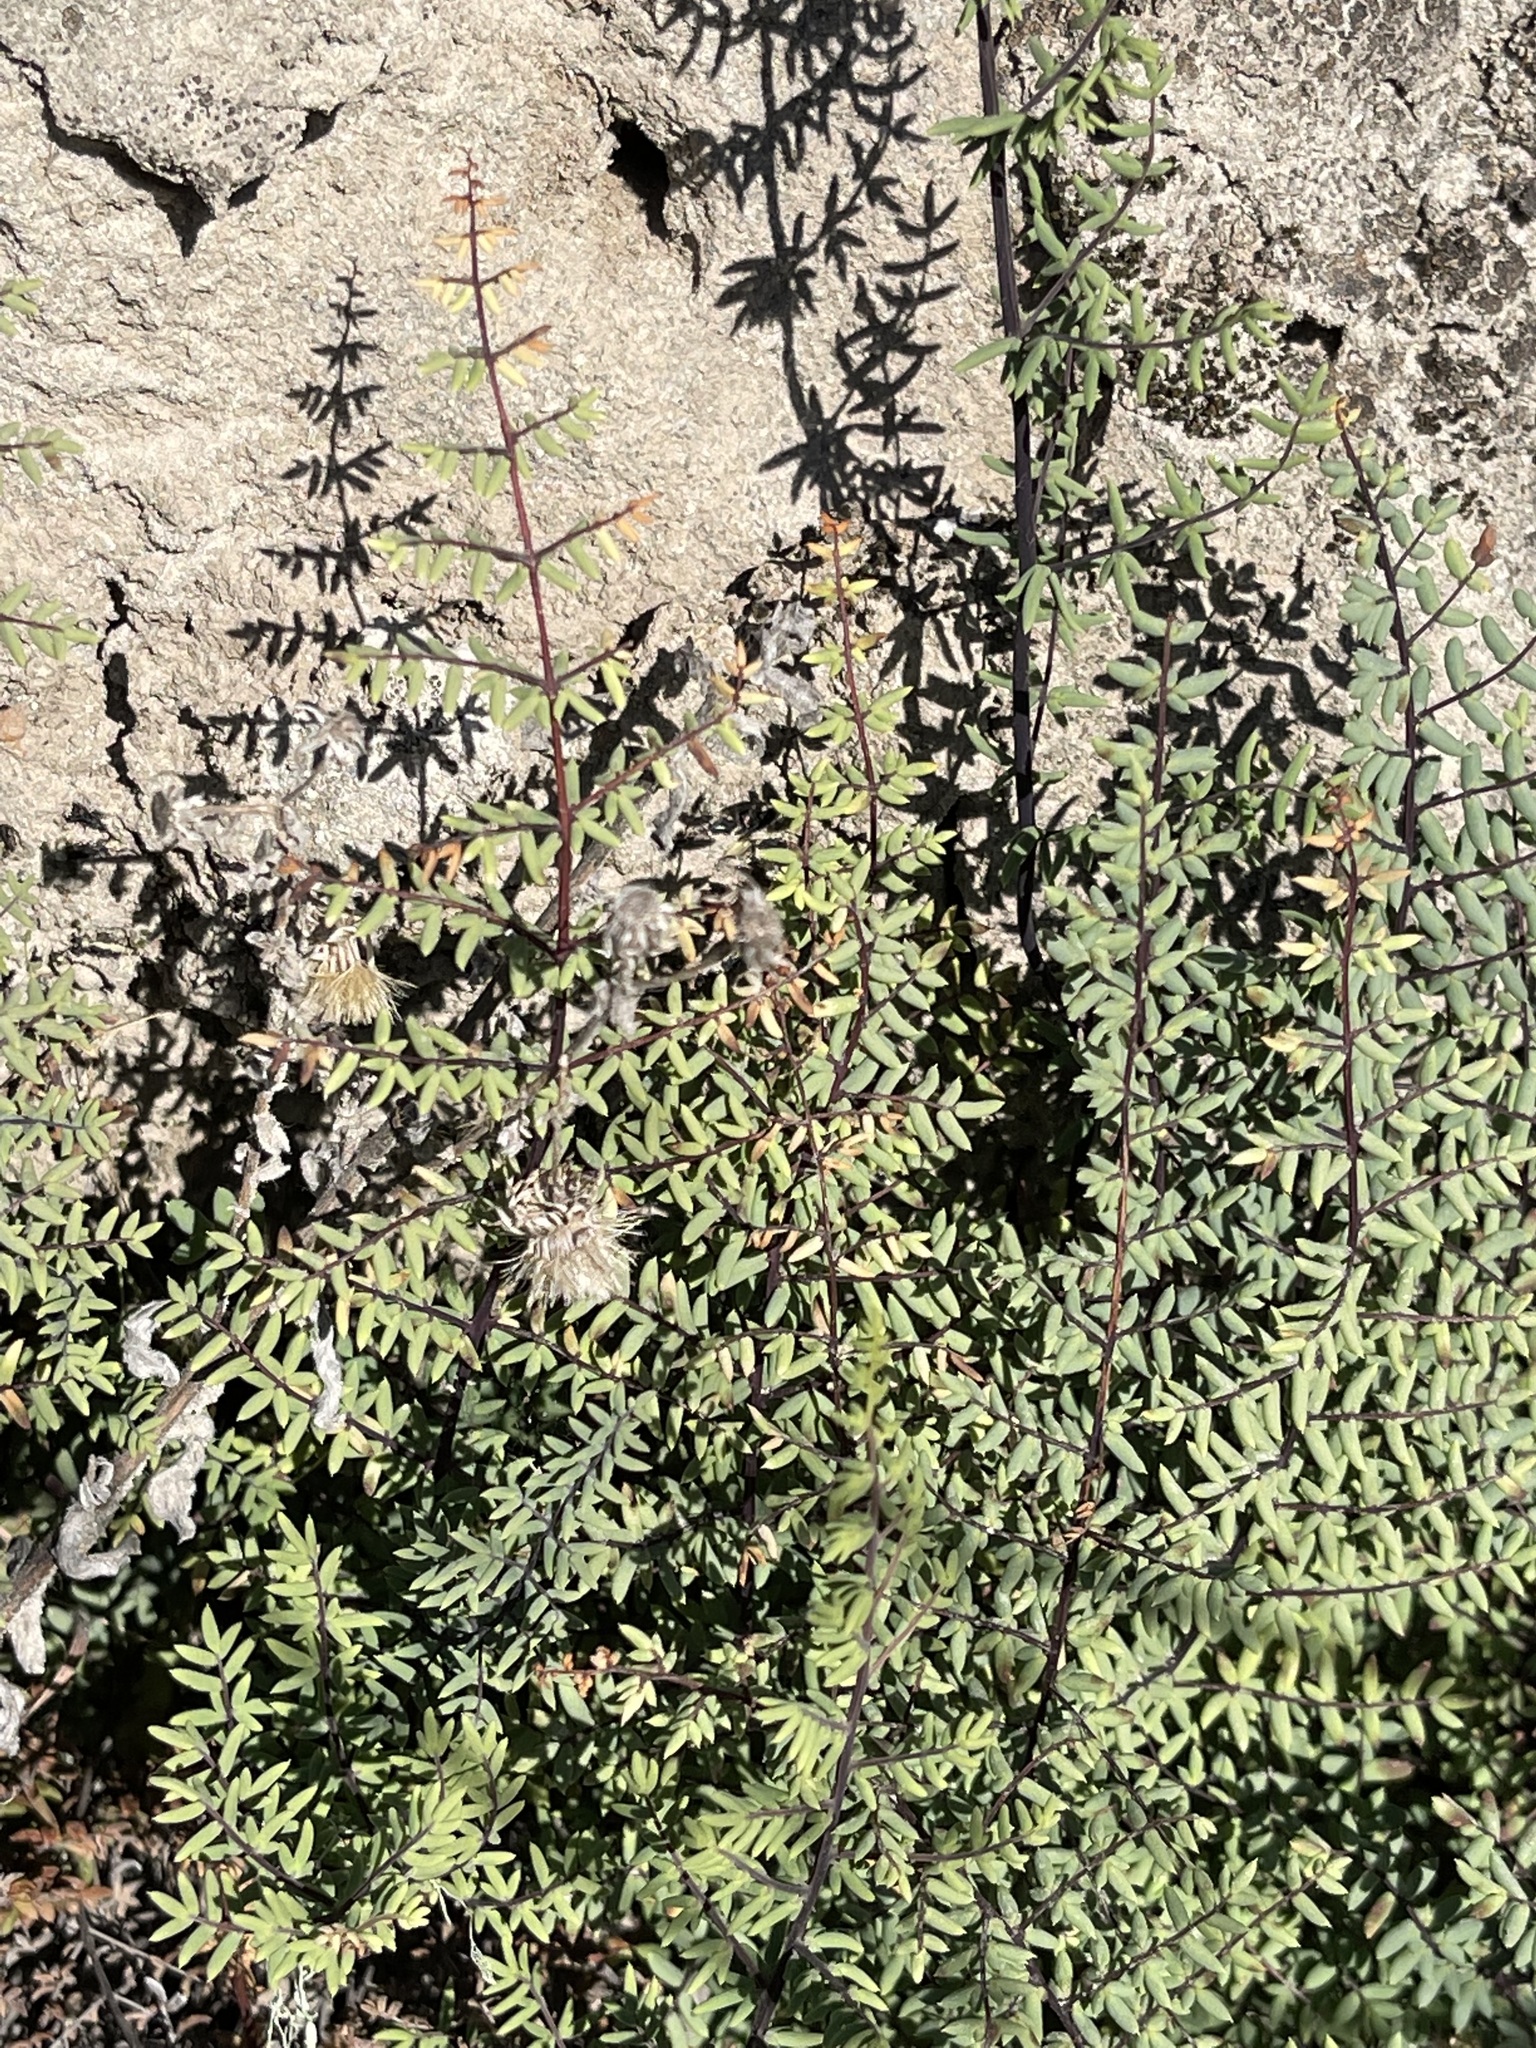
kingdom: Plantae
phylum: Tracheophyta
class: Polypodiopsida
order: Polypodiales
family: Pteridaceae
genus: Pellaea
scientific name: Pellaea mucronata
